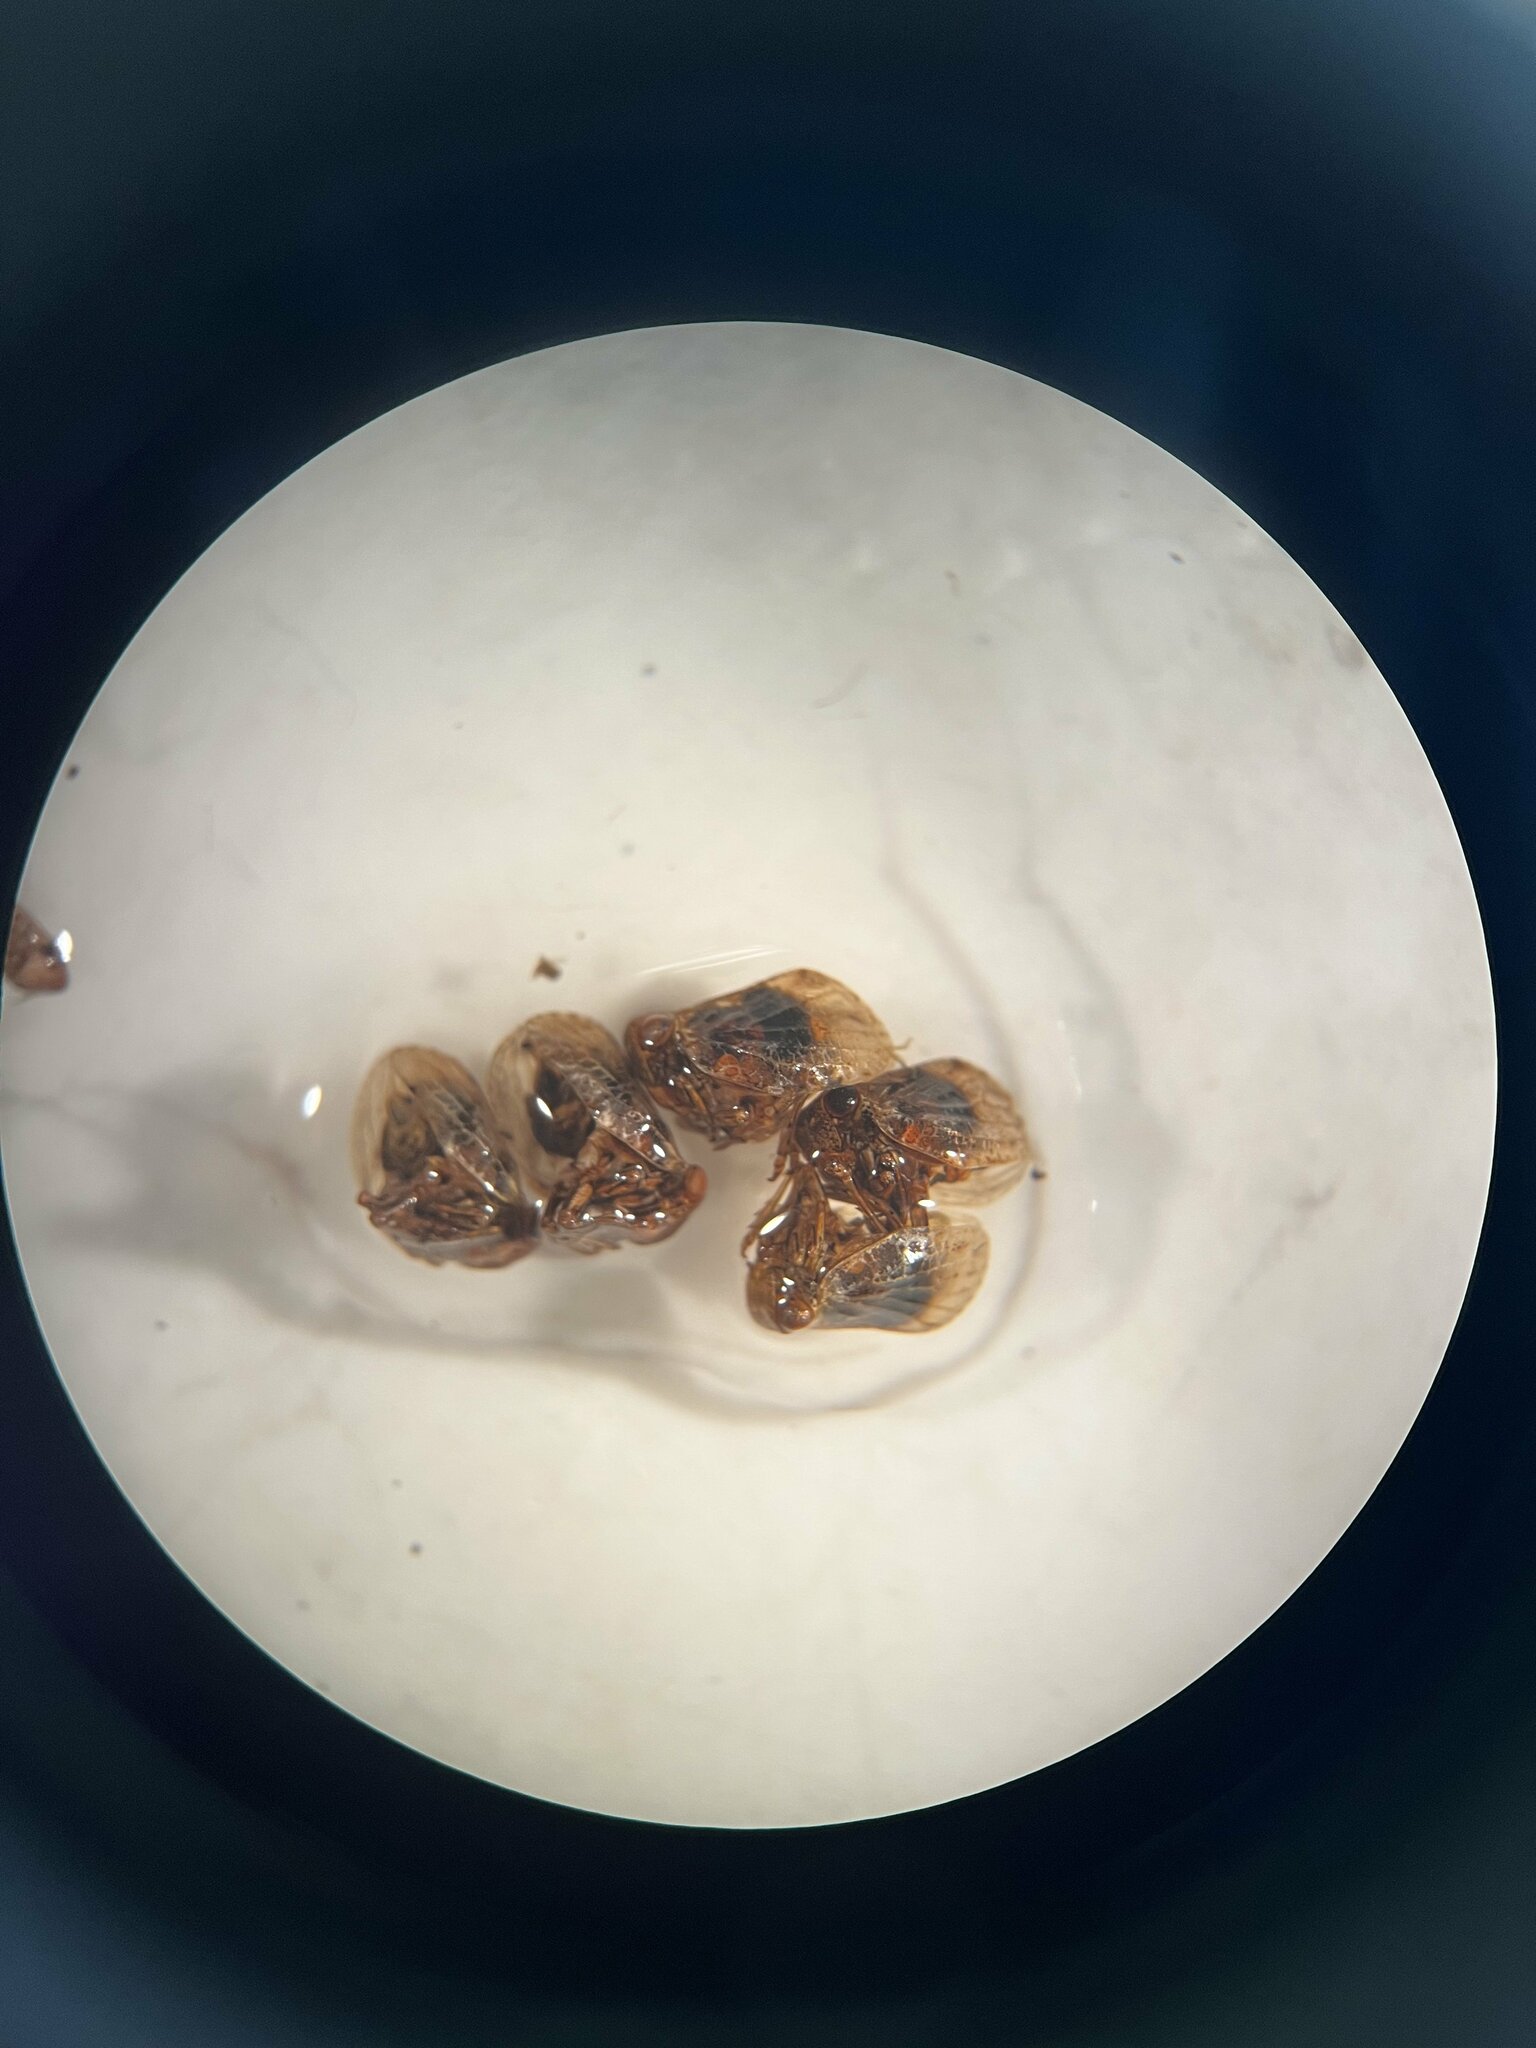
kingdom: Animalia
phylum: Arthropoda
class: Insecta
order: Hemiptera
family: Issidae
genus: Hysteropterum
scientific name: Hysteropterum reticulatum
